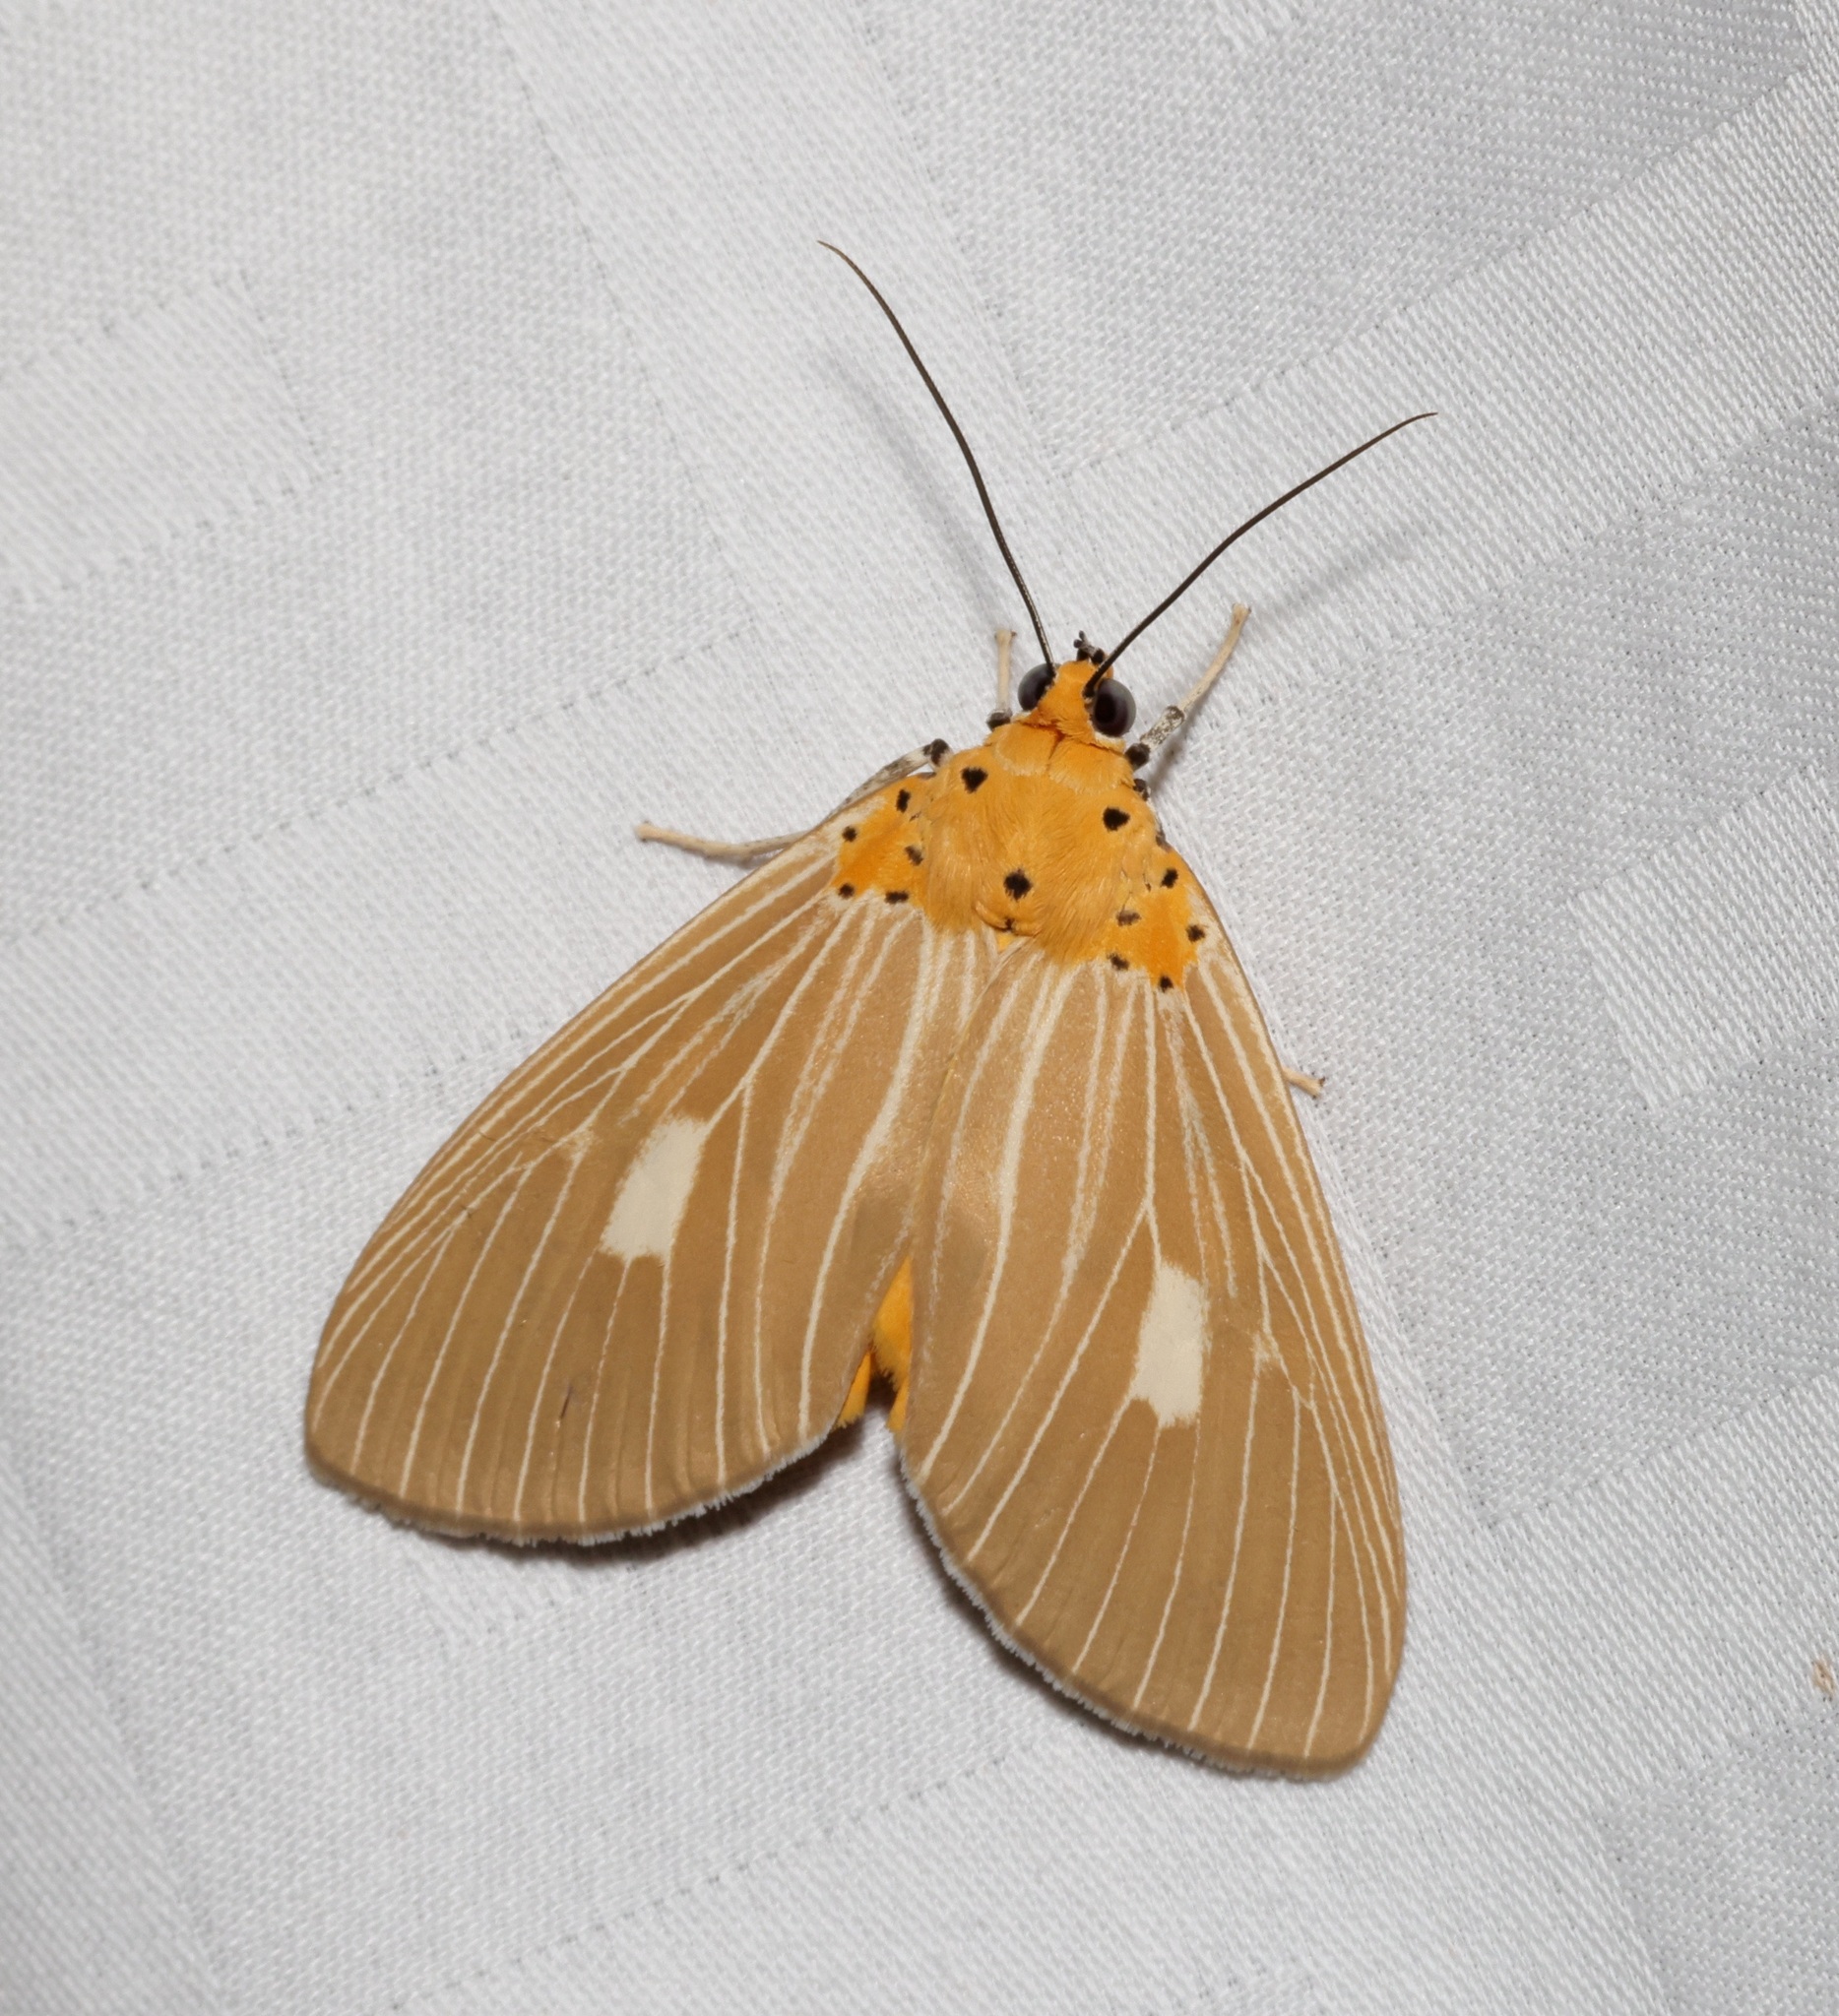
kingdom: Animalia
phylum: Arthropoda
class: Insecta
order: Lepidoptera
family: Erebidae
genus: Asota
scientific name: Asota plaginota
